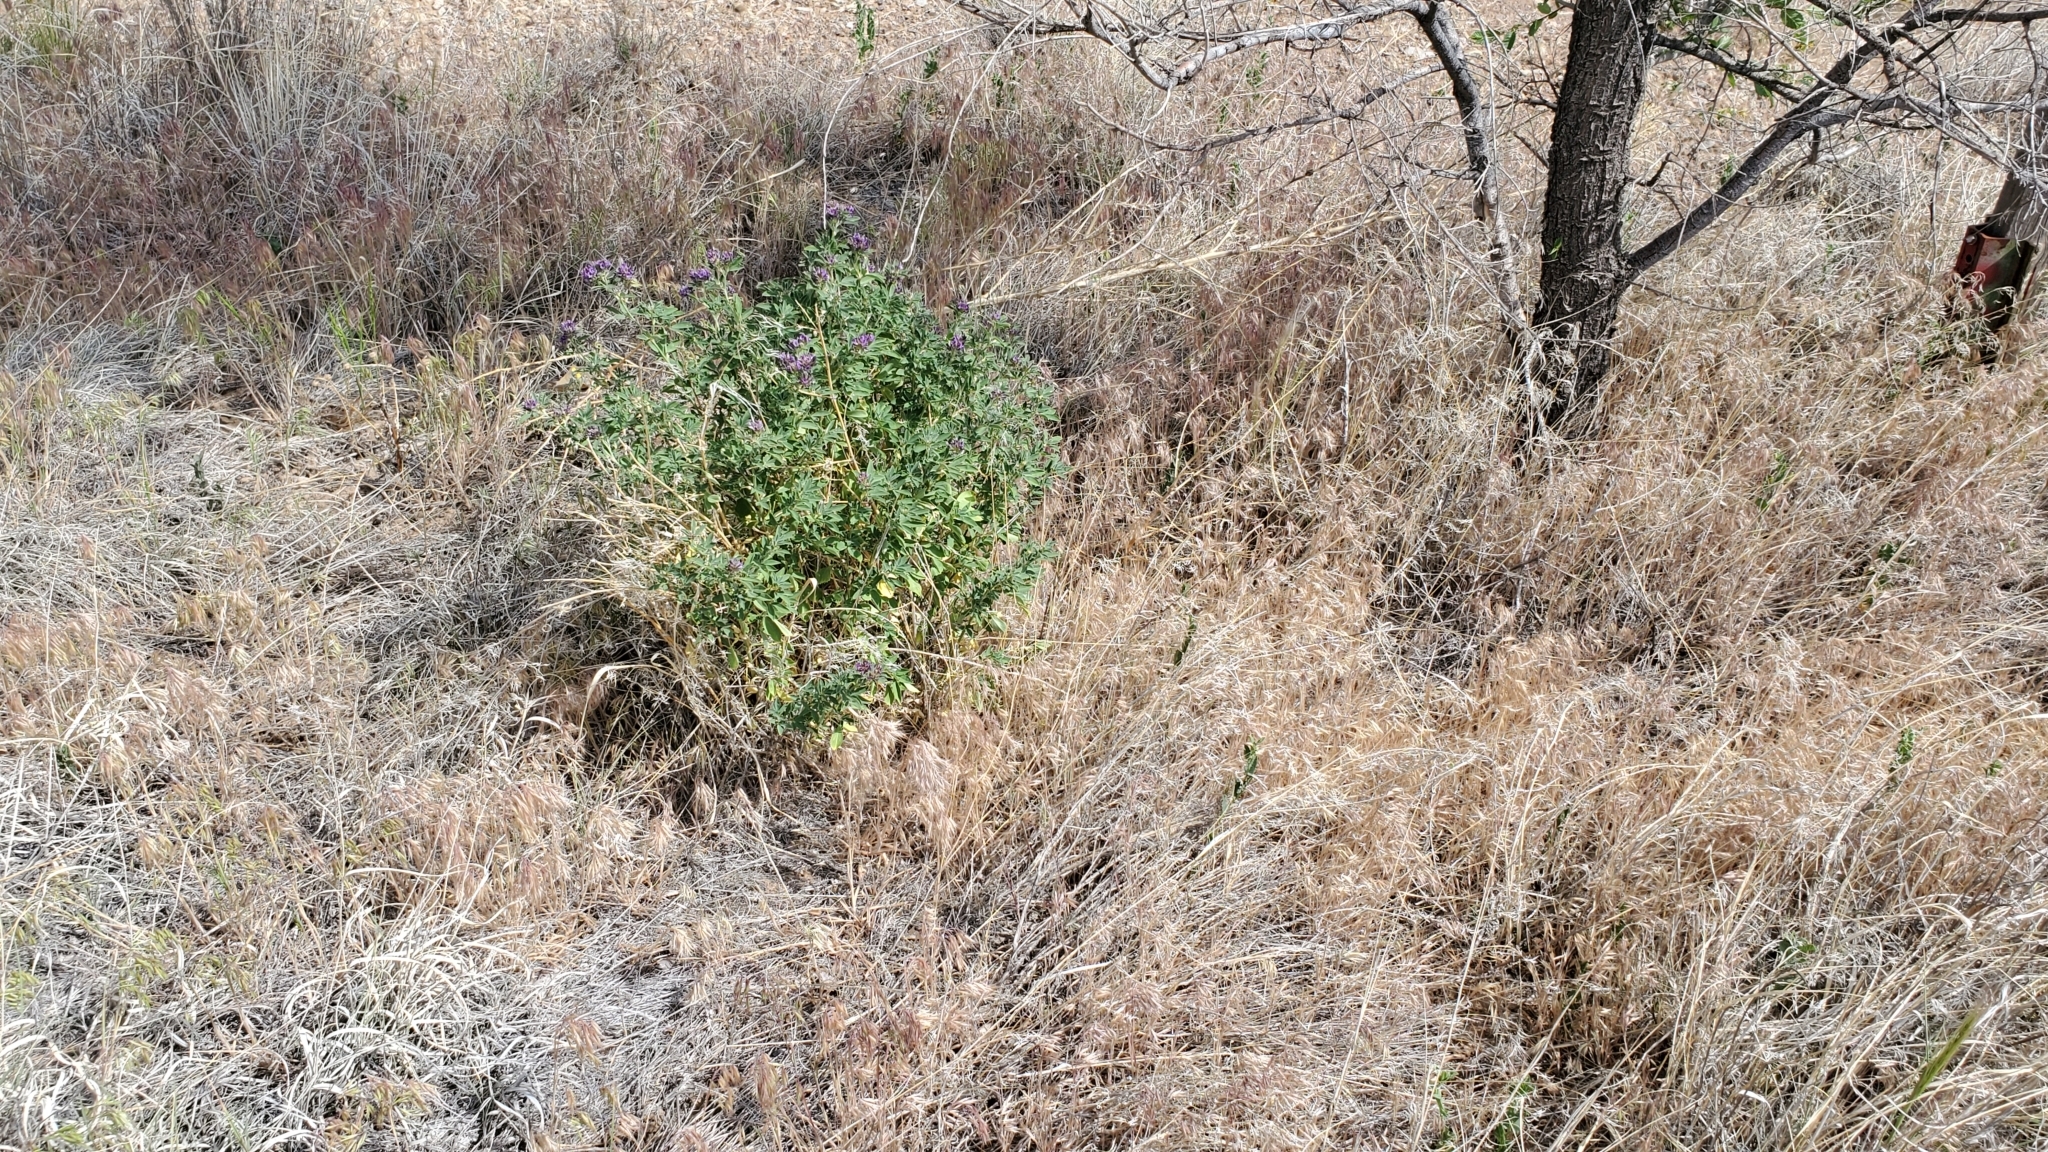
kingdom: Plantae
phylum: Tracheophyta
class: Magnoliopsida
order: Fabales
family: Fabaceae
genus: Medicago
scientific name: Medicago sativa
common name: Alfalfa
